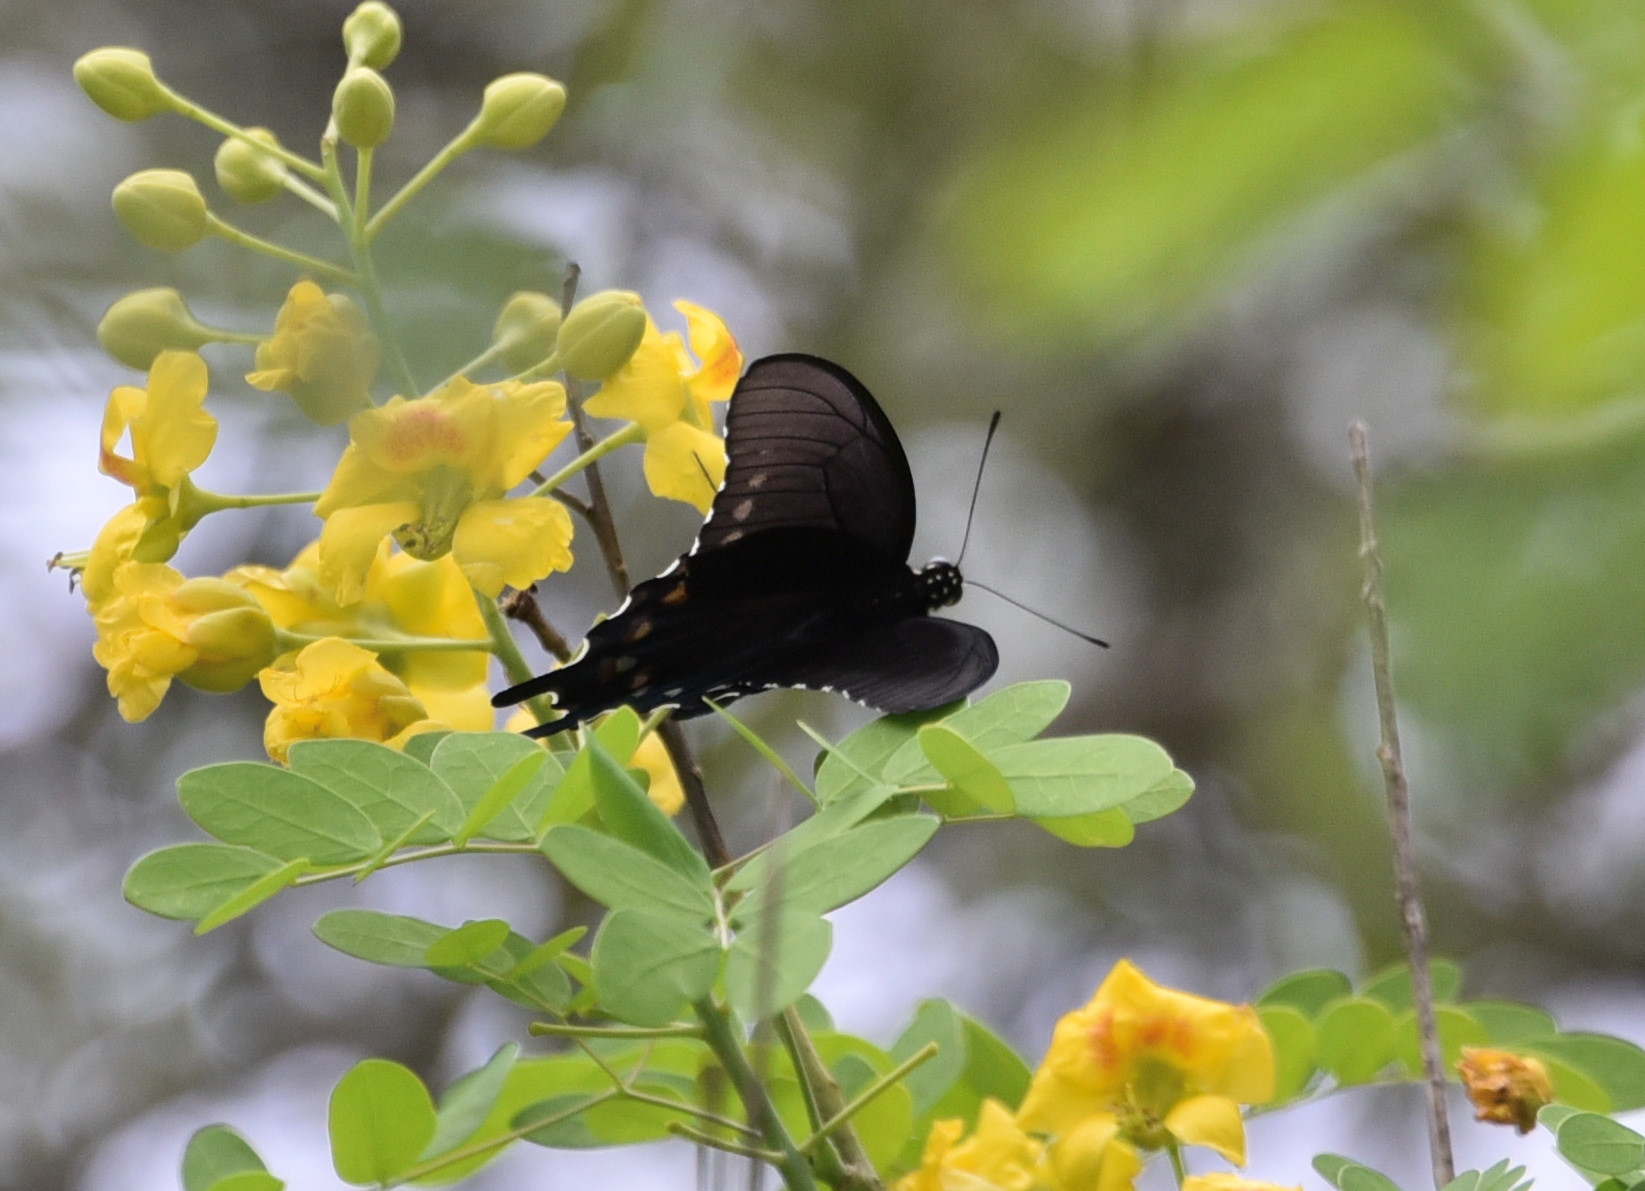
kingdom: Animalia
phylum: Arthropoda
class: Insecta
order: Lepidoptera
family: Papilionidae
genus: Battus
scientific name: Battus philenor
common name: Pipevine swallowtail
